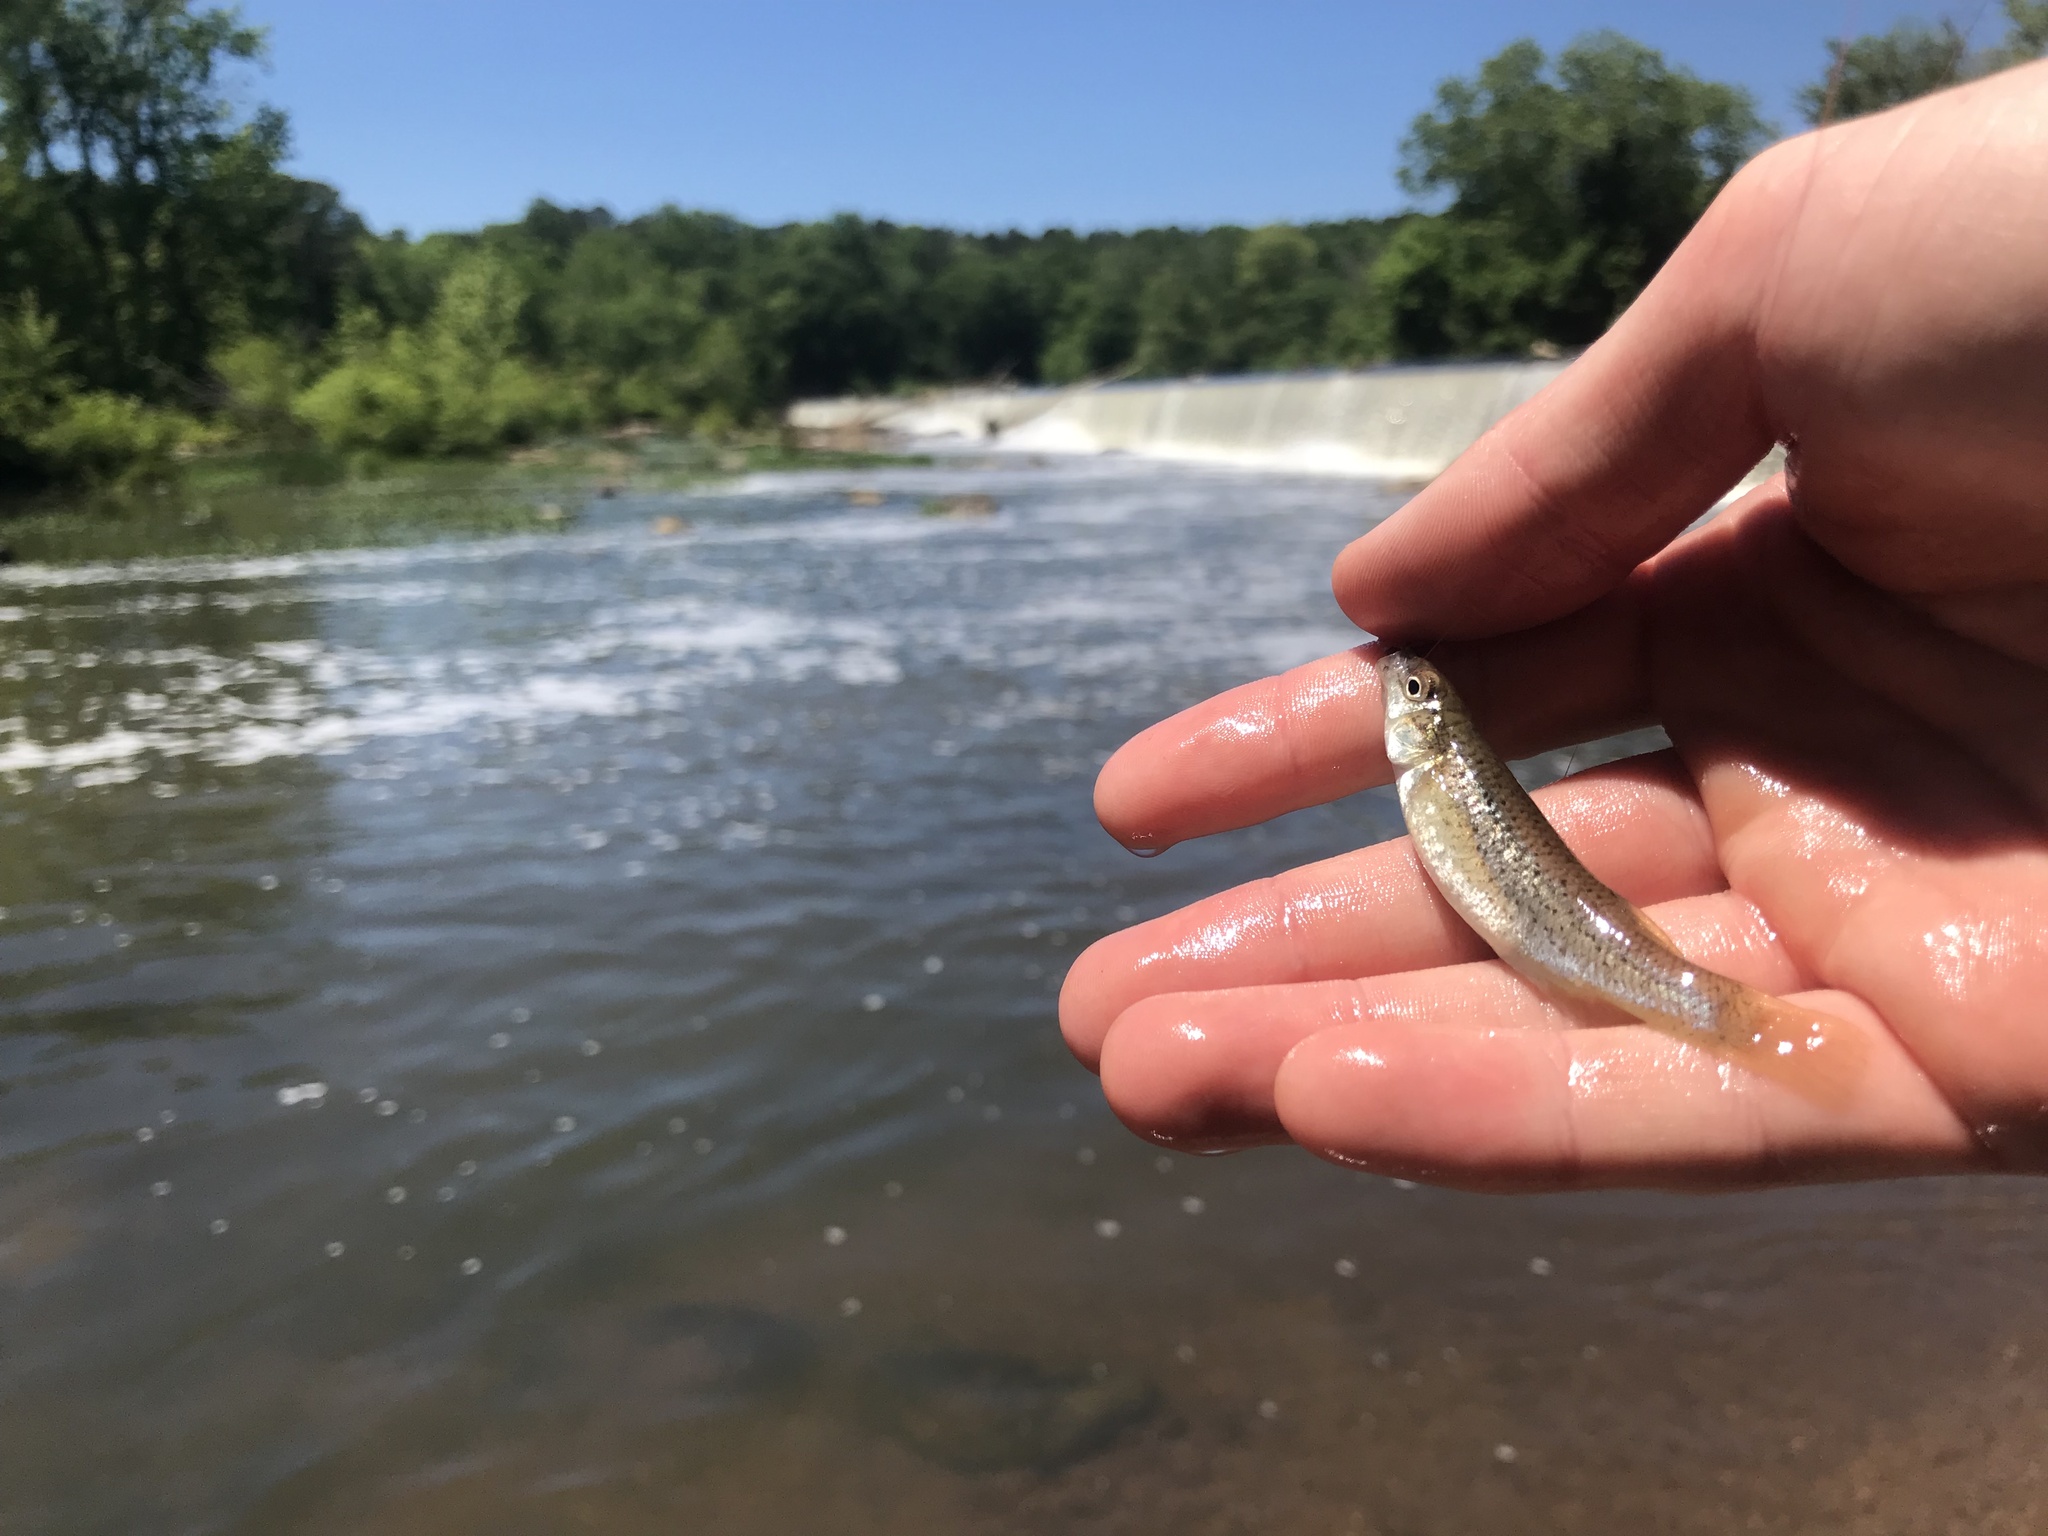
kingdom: Animalia
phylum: Chordata
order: Cyprinodontiformes
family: Fundulidae
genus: Fundulus
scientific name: Fundulus rathbuni
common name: Speckled killifish
